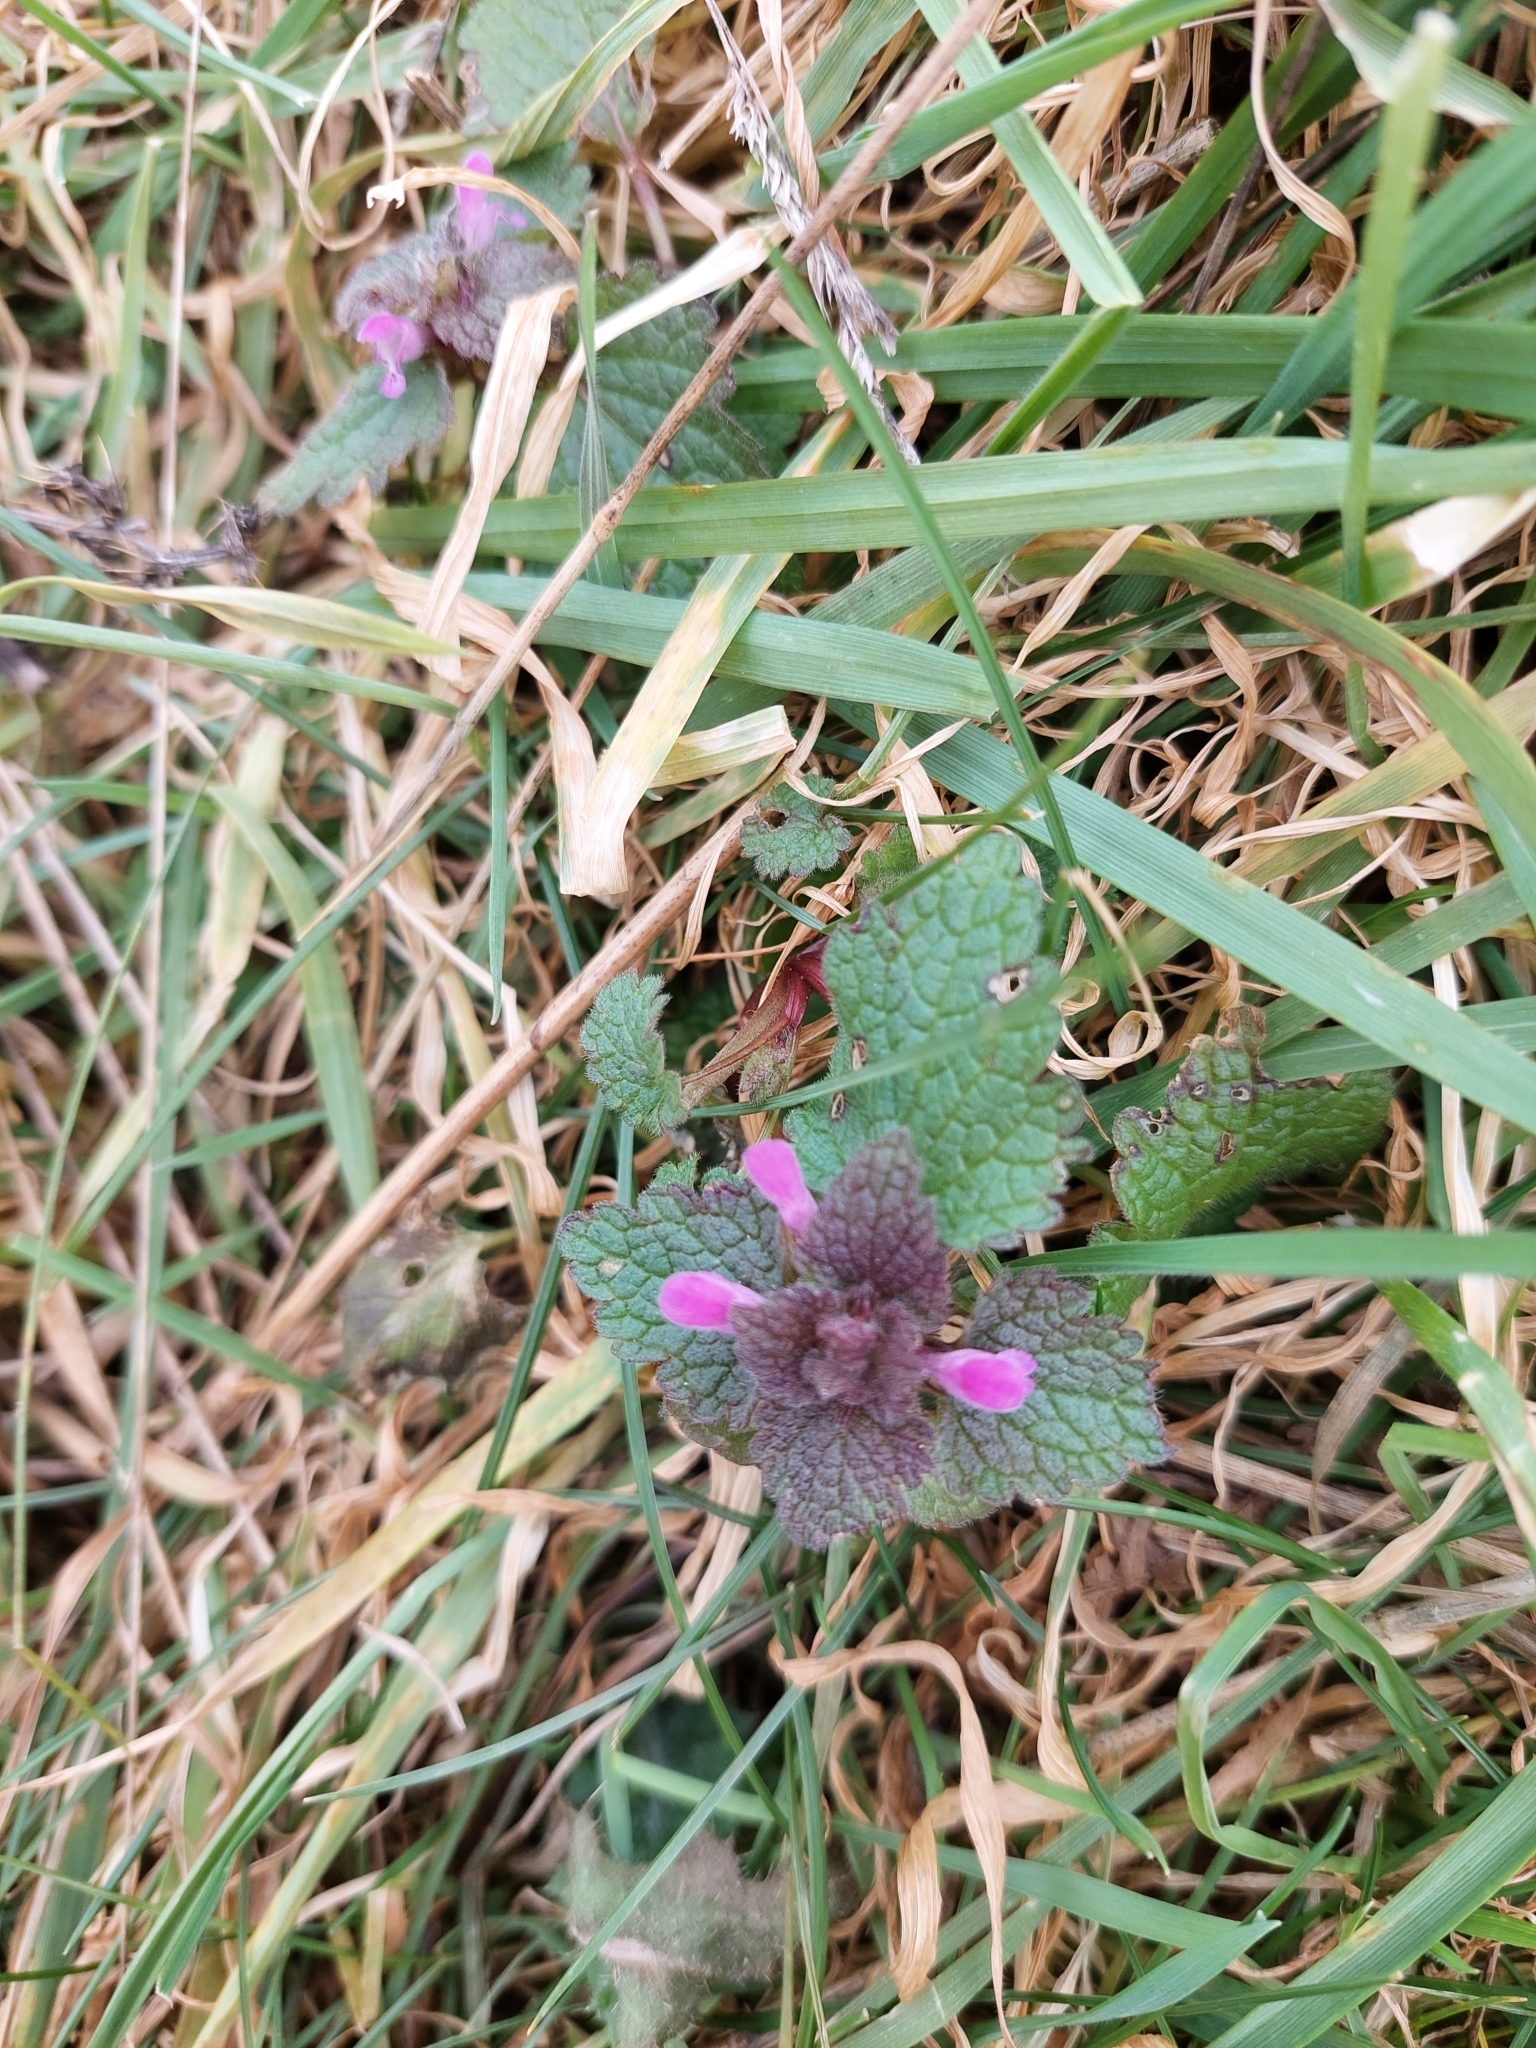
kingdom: Plantae
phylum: Tracheophyta
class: Magnoliopsida
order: Lamiales
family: Lamiaceae
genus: Lamium
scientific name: Lamium purpureum
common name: Red dead-nettle
